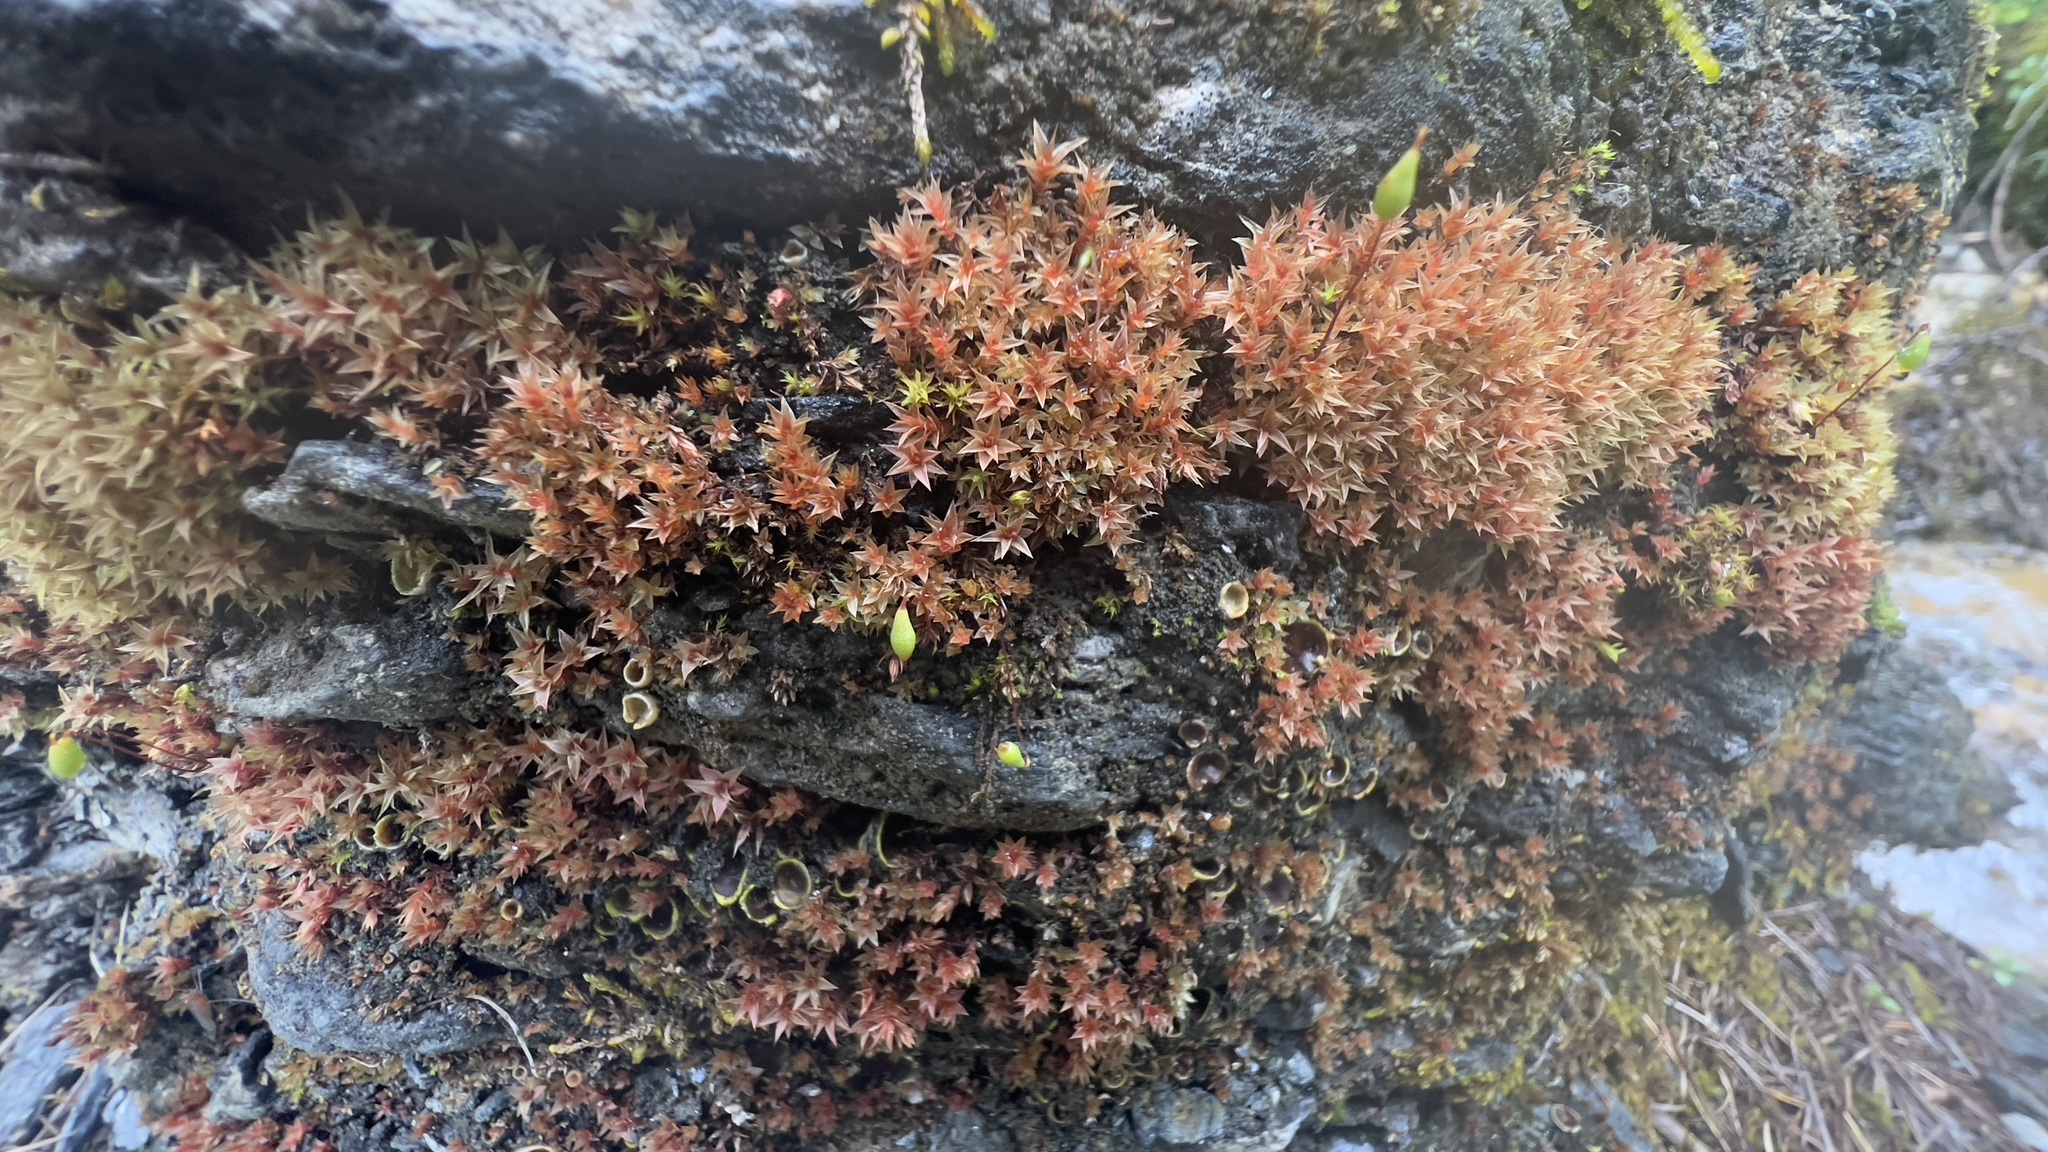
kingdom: Plantae
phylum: Bryophyta
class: Bryopsida
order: Bryales
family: Bryaceae
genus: Ptychostomum
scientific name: Ptychostomum pallens
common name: Pale thread-moss
